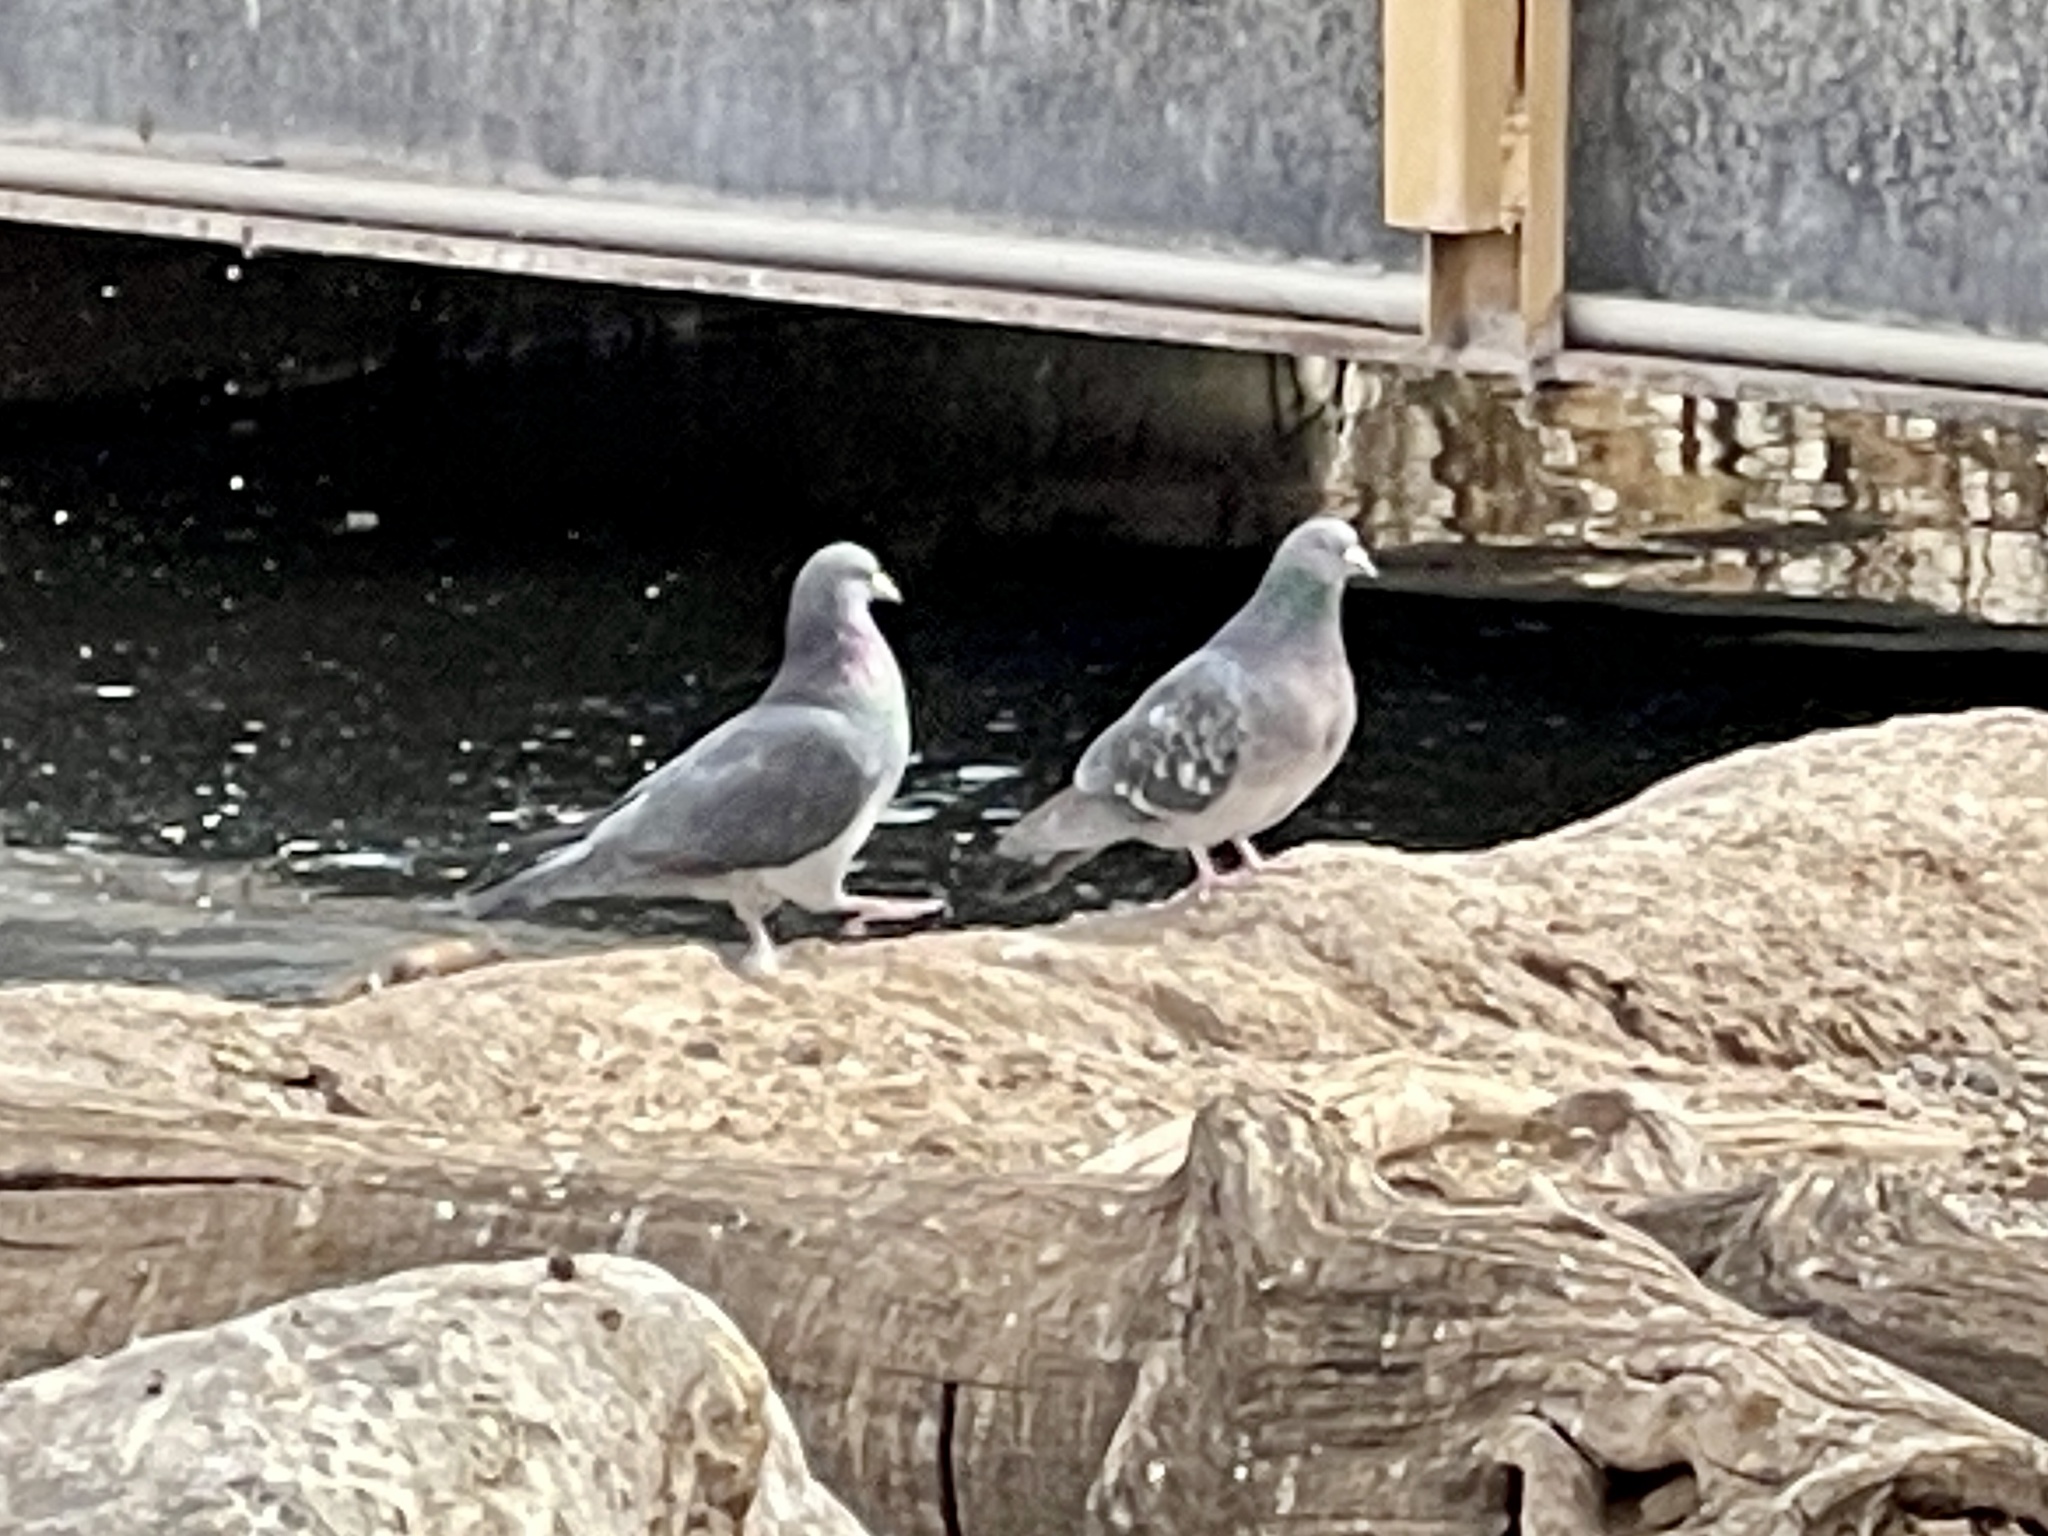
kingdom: Animalia
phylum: Chordata
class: Aves
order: Columbiformes
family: Columbidae
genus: Columba
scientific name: Columba livia
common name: Rock pigeon
